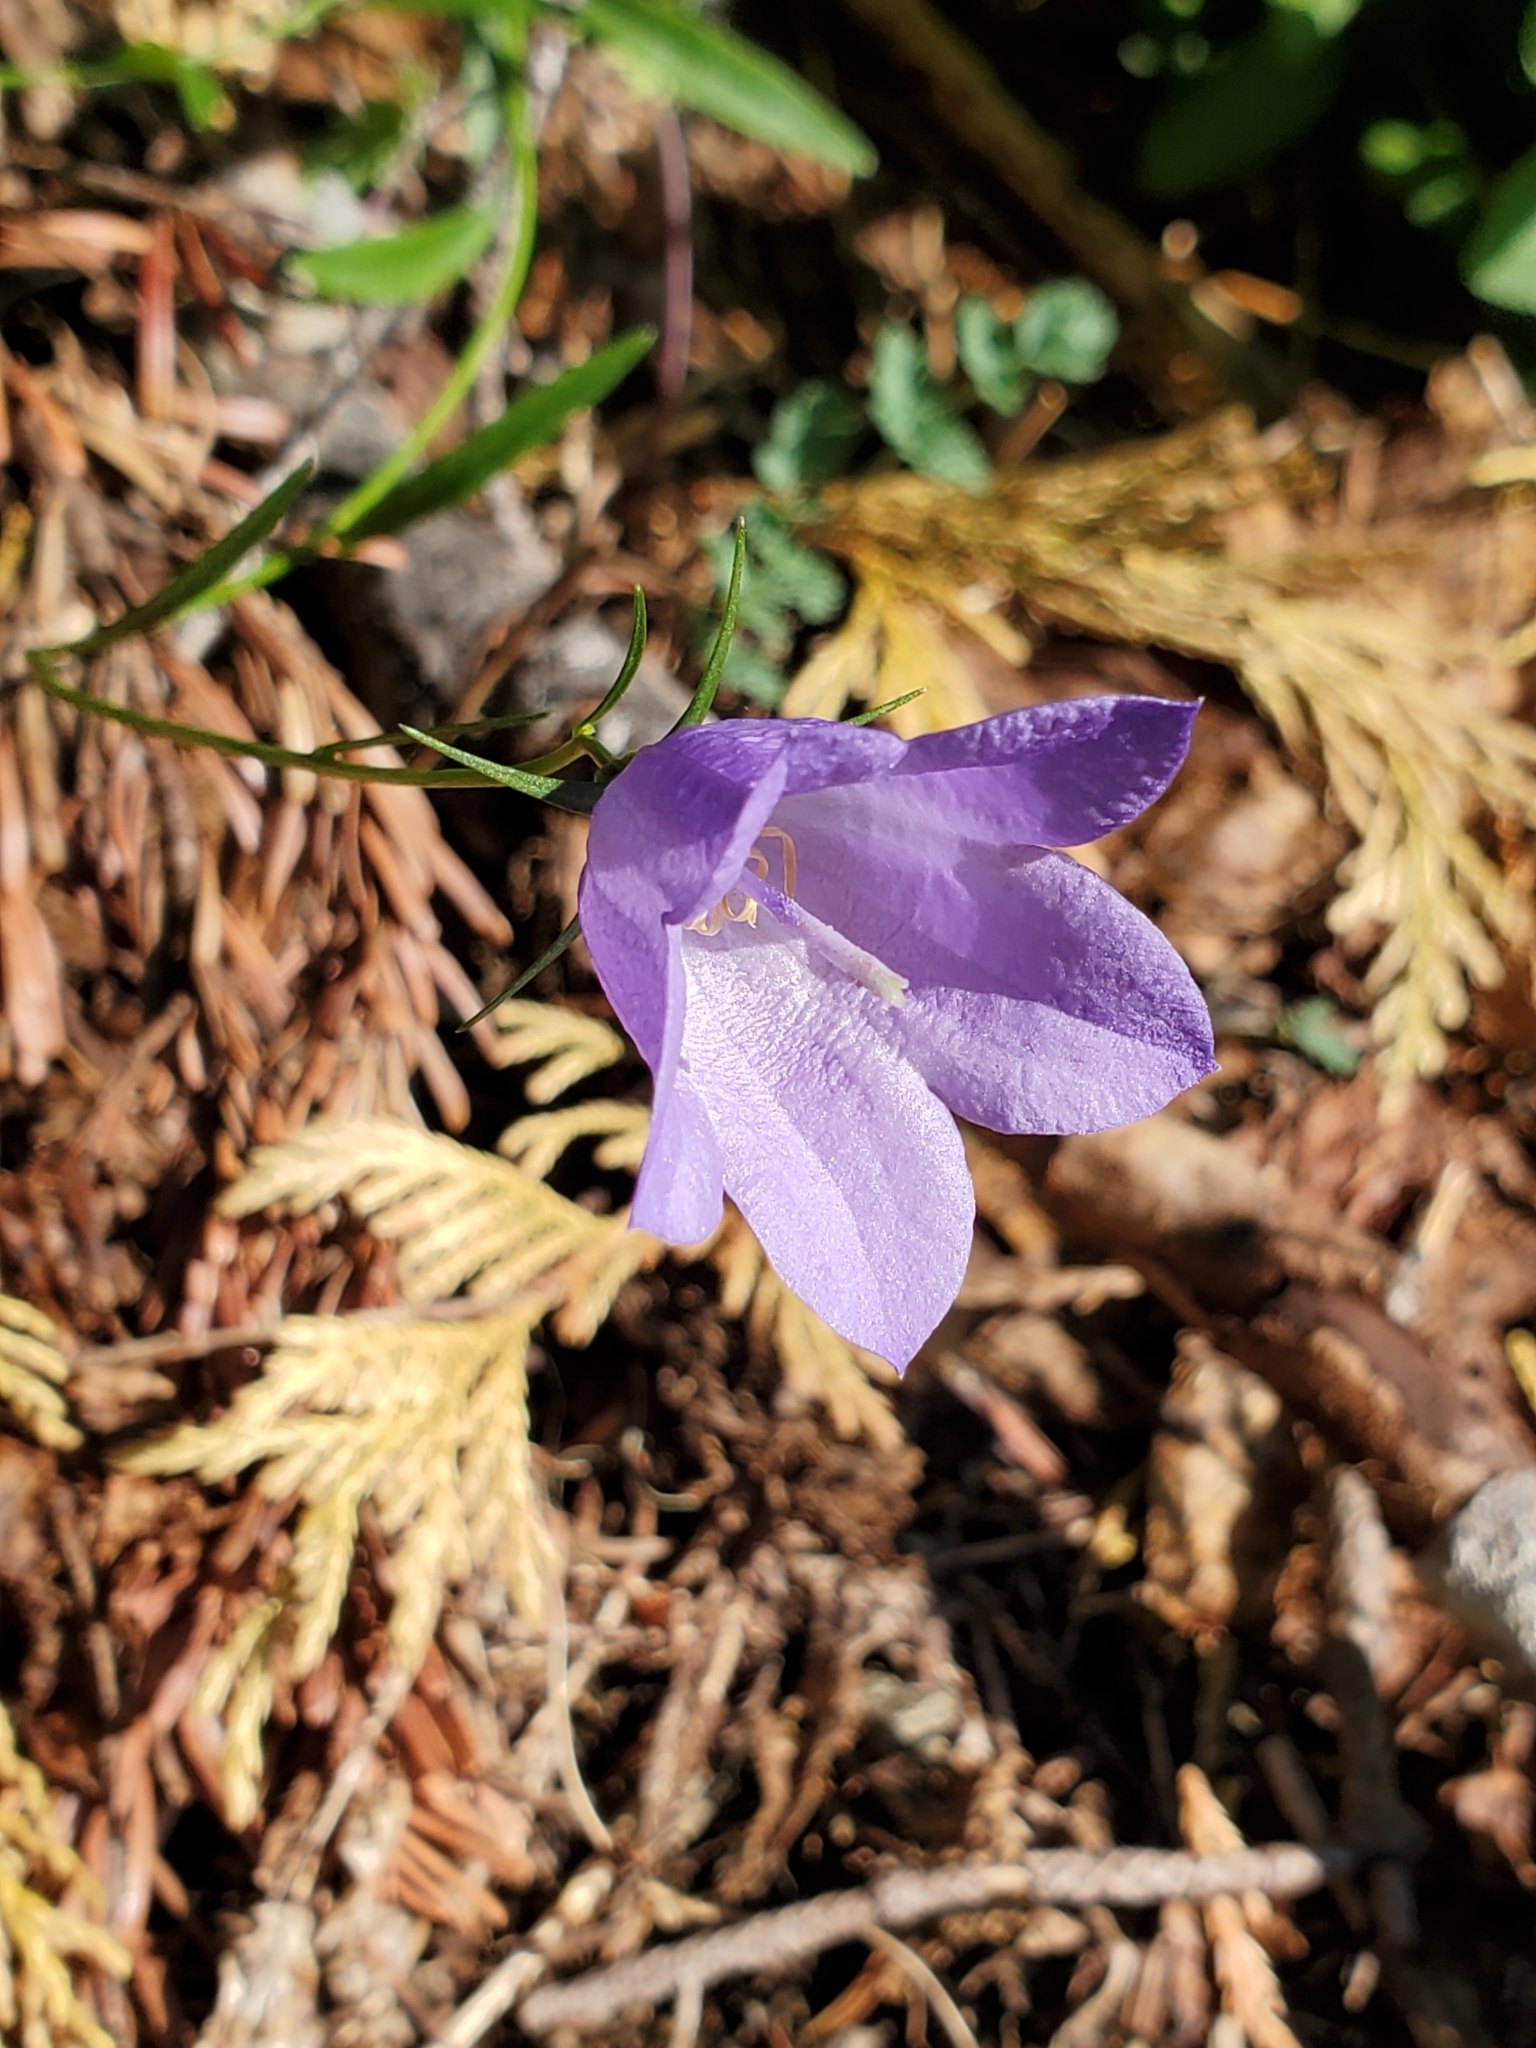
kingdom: Plantae
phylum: Tracheophyta
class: Magnoliopsida
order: Asterales
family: Campanulaceae
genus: Campanula
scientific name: Campanula alaskana
